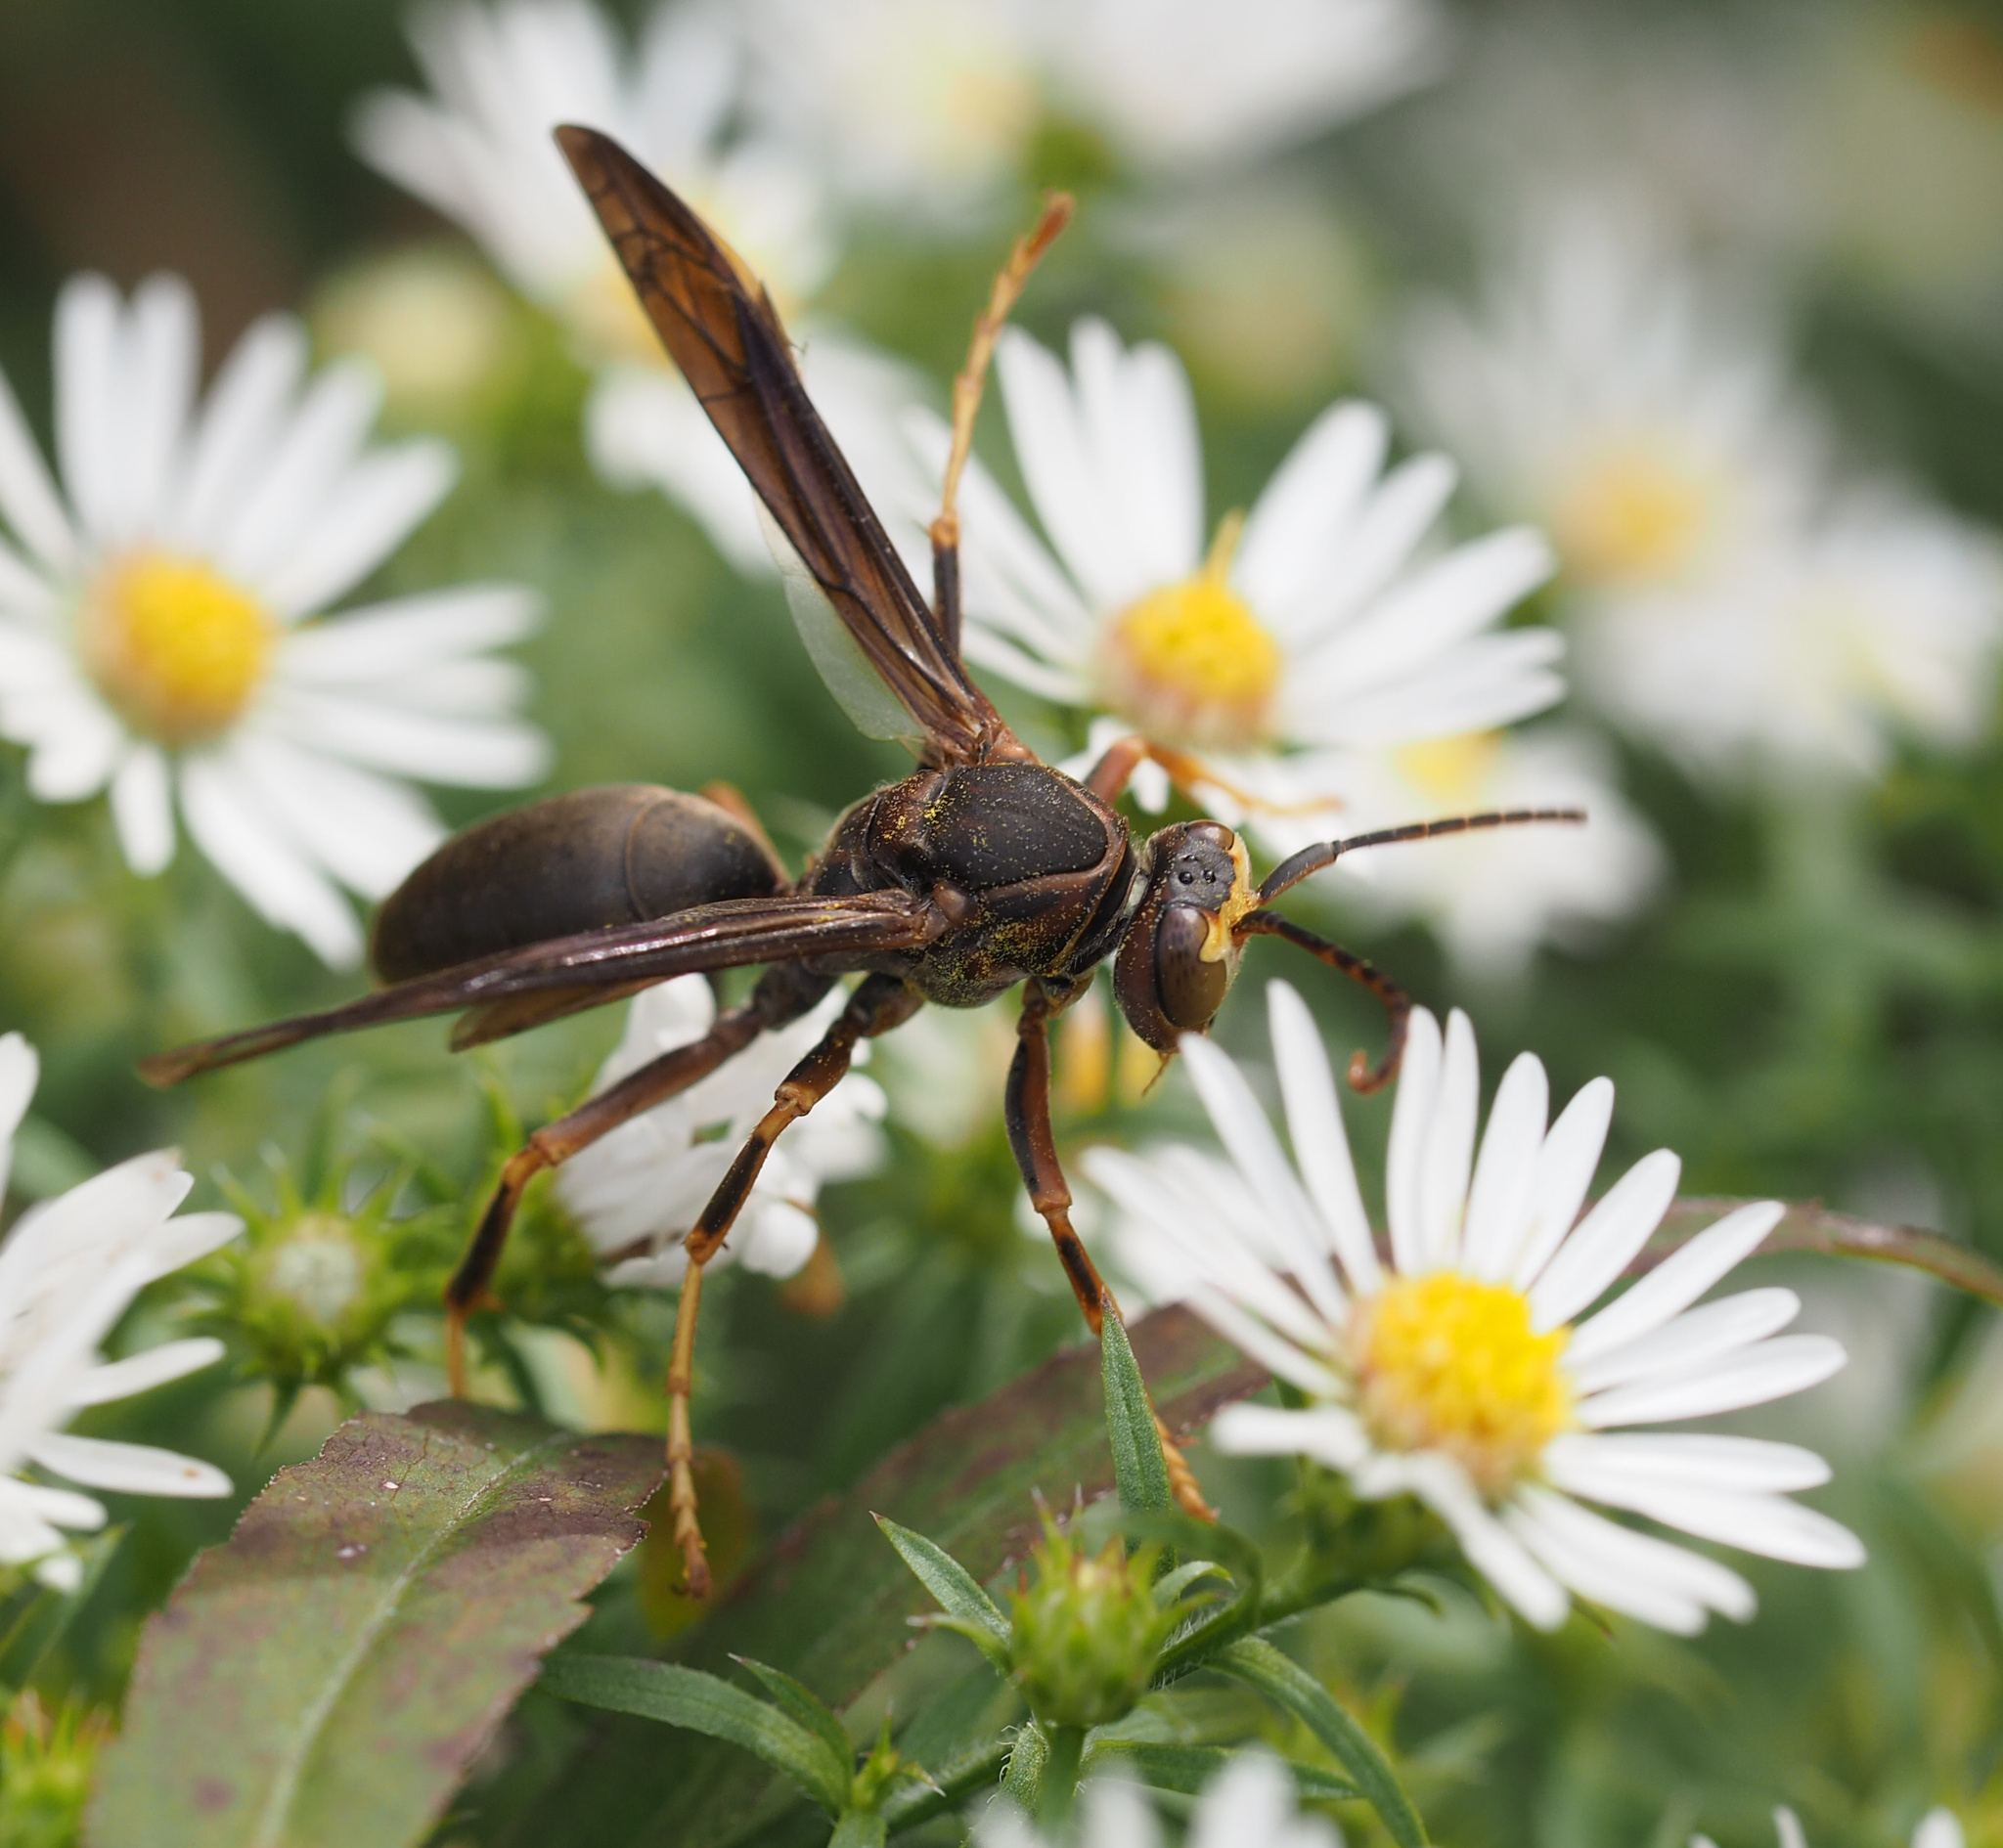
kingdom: Animalia
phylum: Arthropoda
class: Insecta
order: Hymenoptera
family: Eumenidae
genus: Polistes
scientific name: Polistes fuscatus
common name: Dark paper wasp
